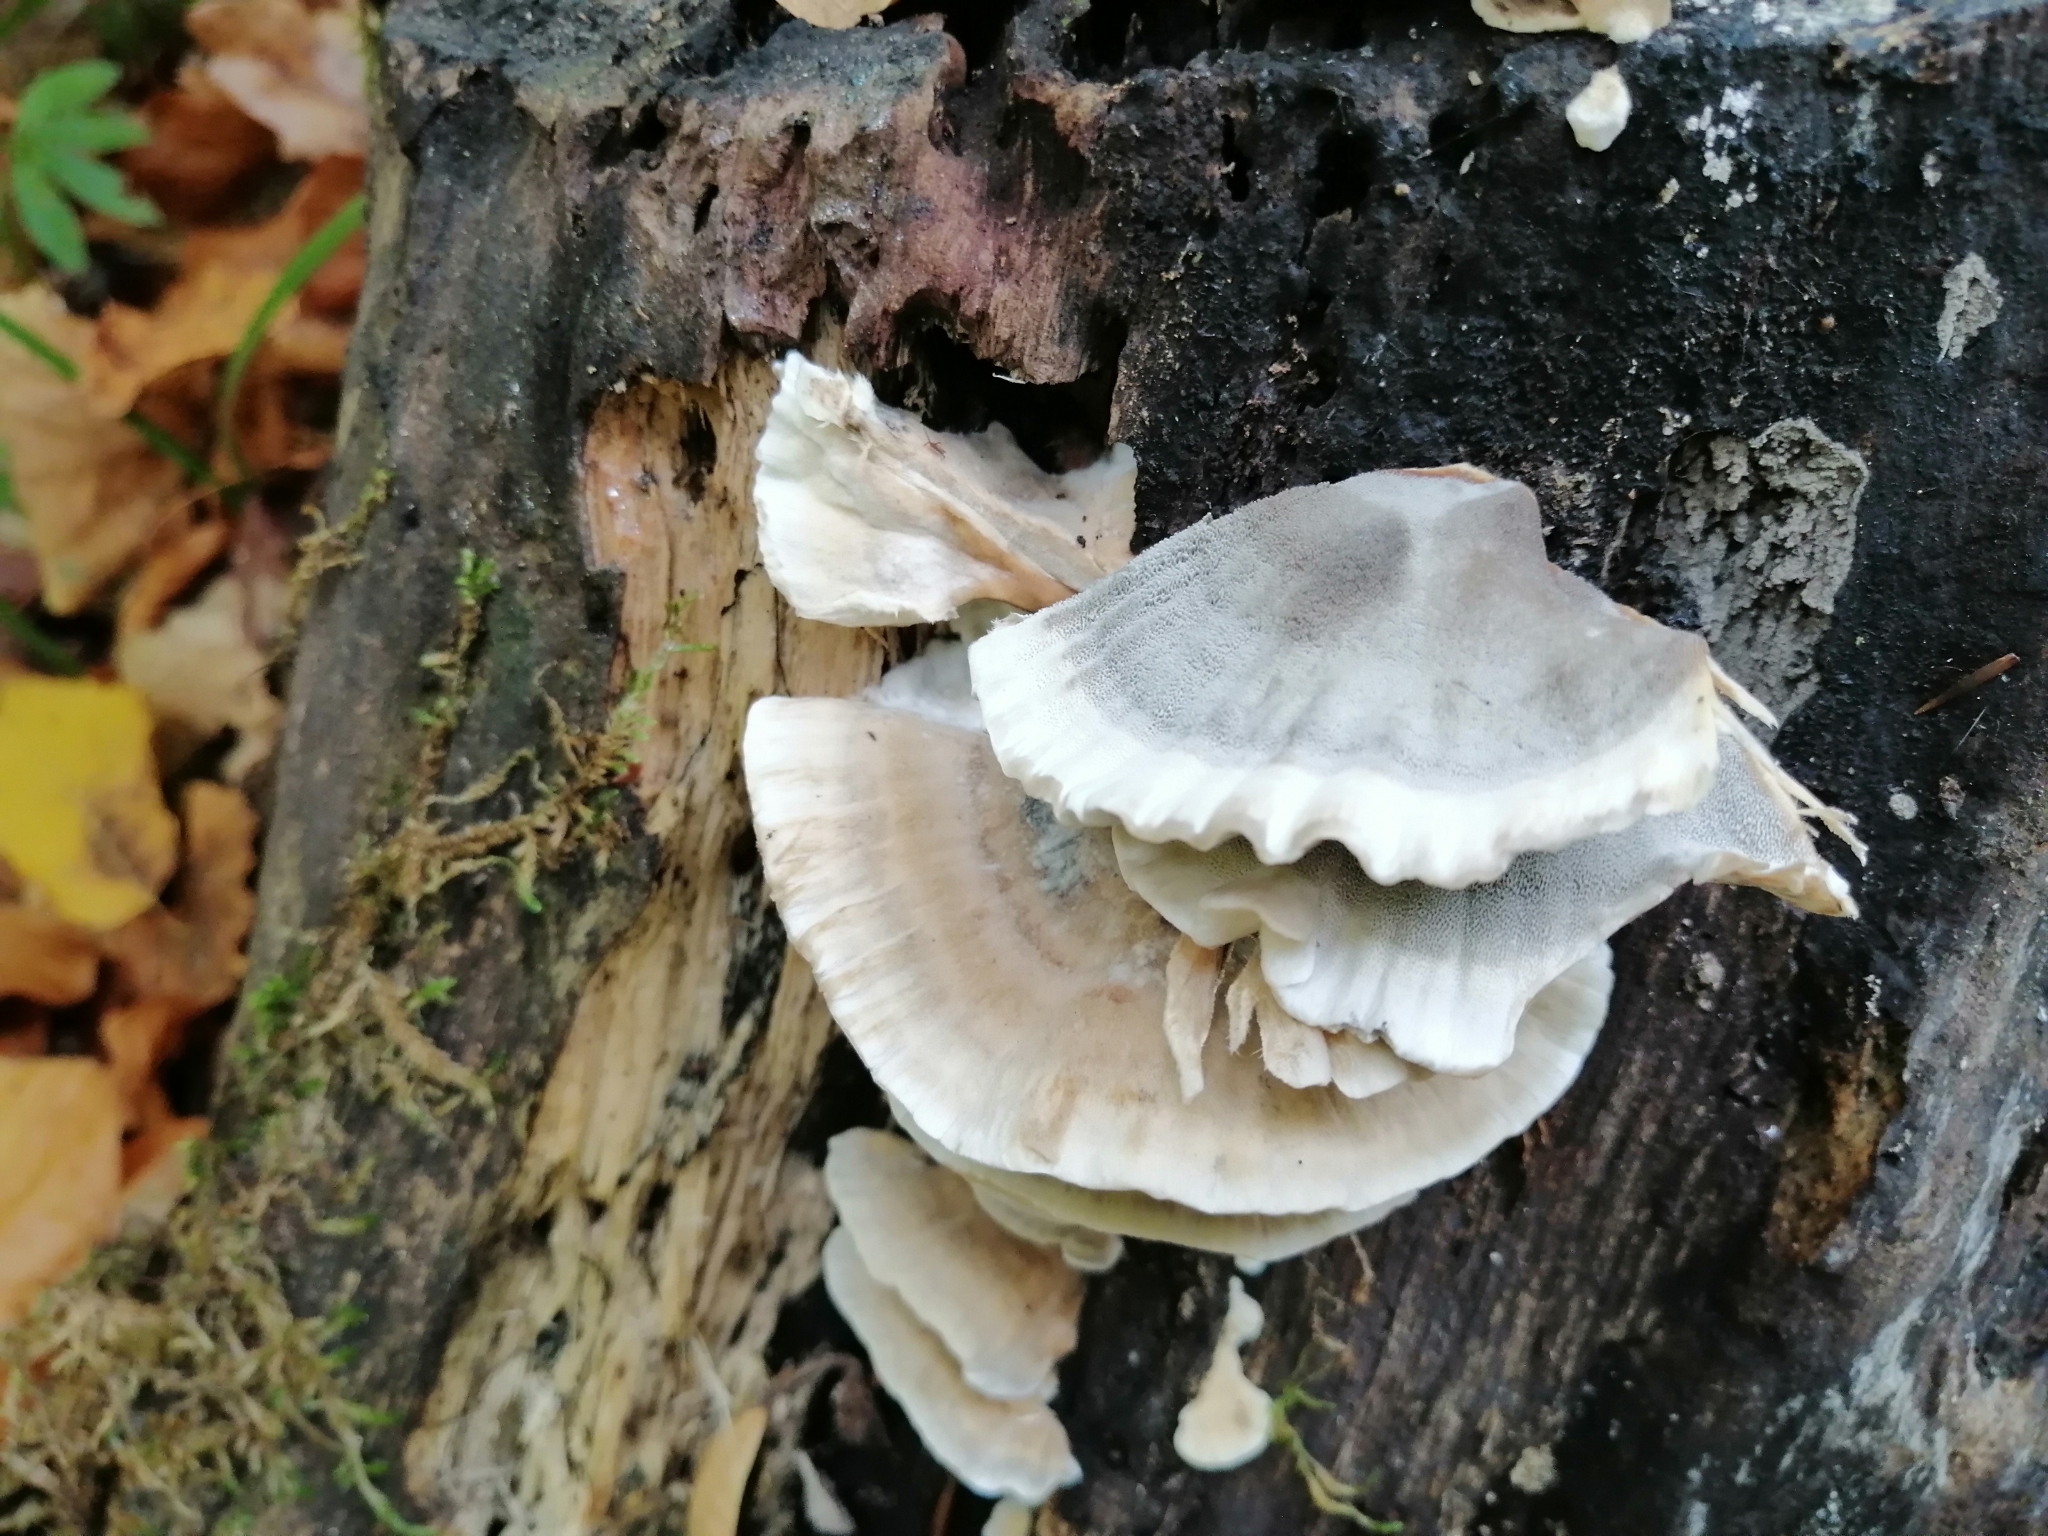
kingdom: Fungi
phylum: Basidiomycota
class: Agaricomycetes
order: Polyporales
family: Phanerochaetaceae
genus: Bjerkandera
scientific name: Bjerkandera adusta
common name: Smoky bracket
